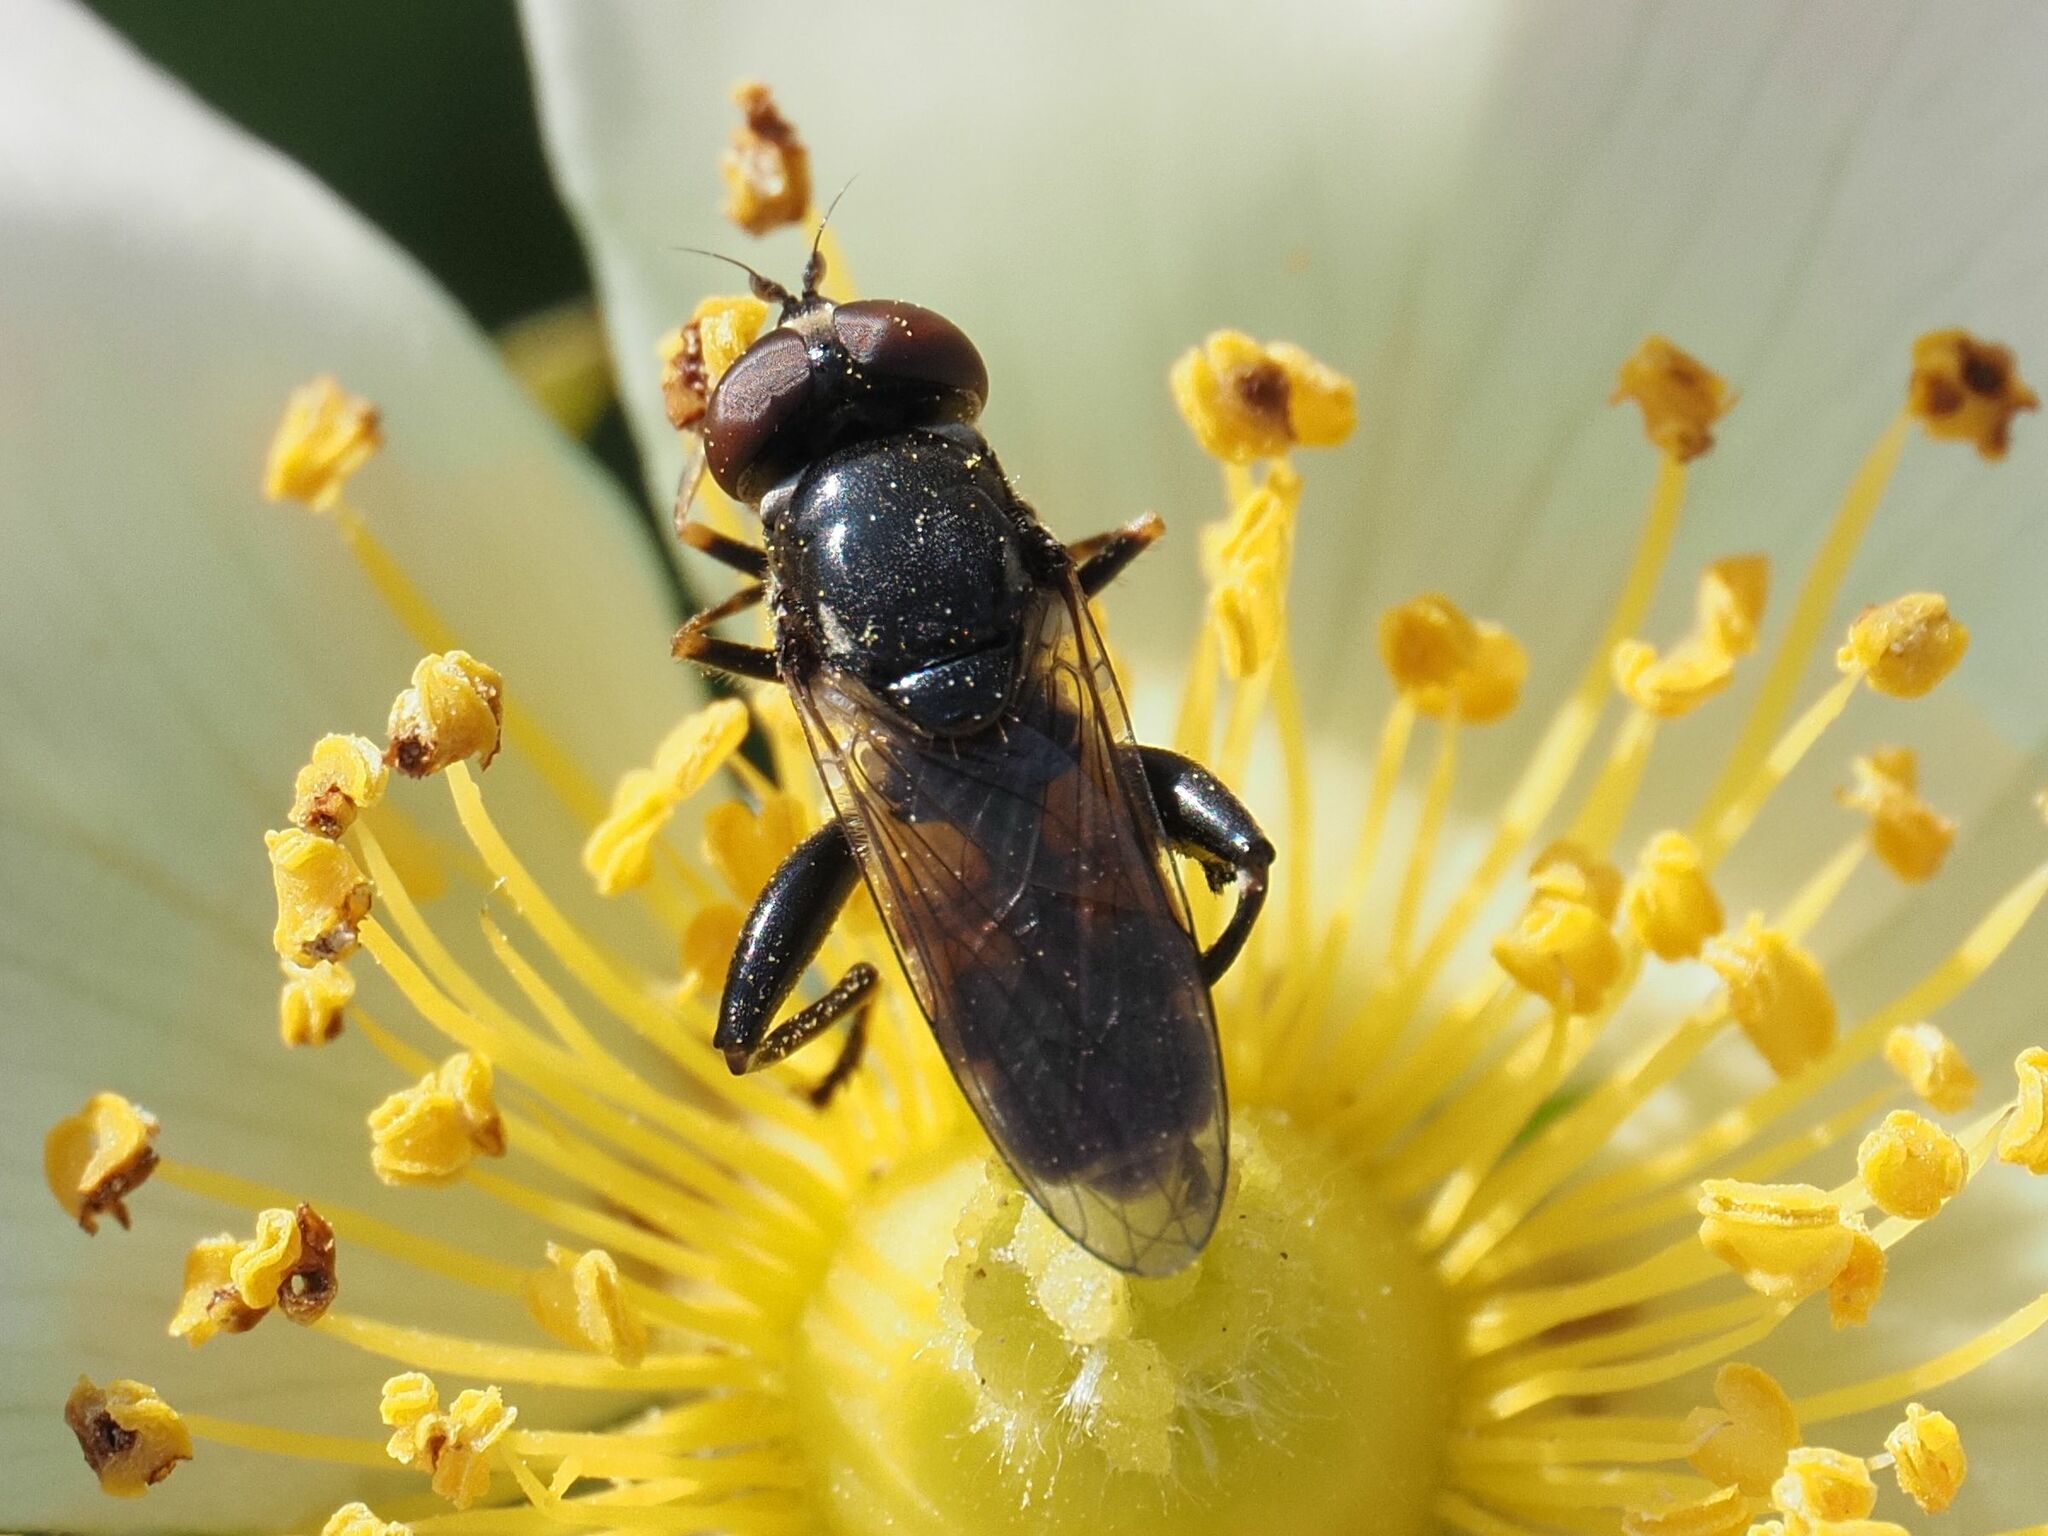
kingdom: Animalia
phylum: Arthropoda
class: Insecta
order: Diptera
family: Syrphidae
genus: Tropidia
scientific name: Tropidia scita
